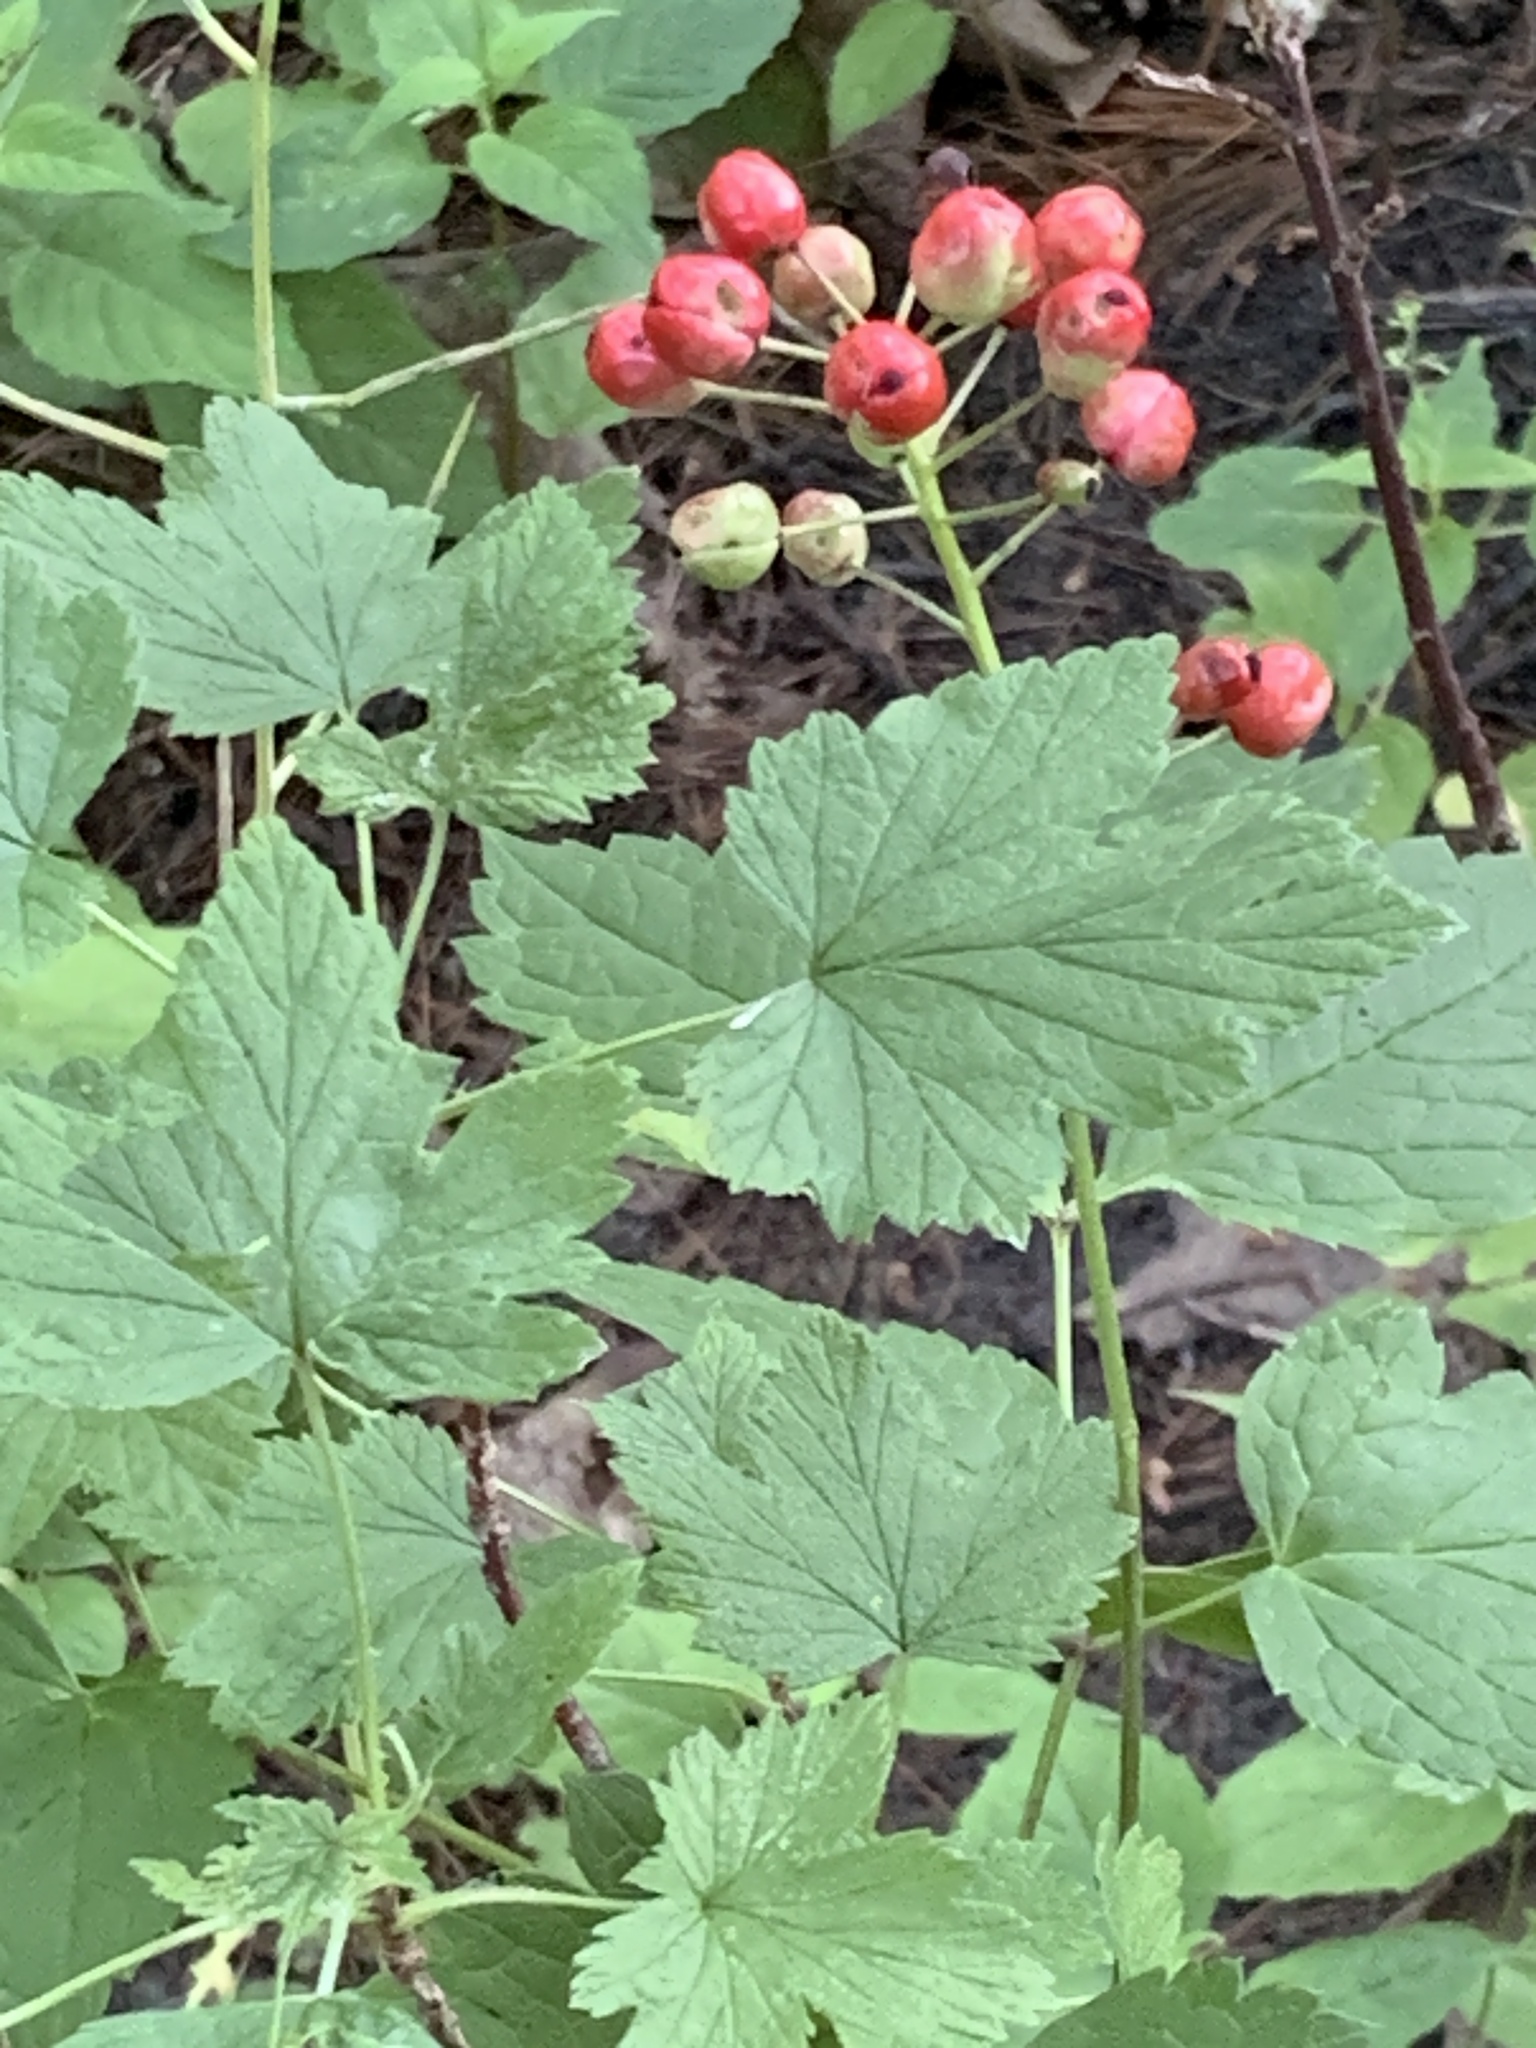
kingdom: Plantae
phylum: Tracheophyta
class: Magnoliopsida
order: Ranunculales
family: Ranunculaceae
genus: Actaea
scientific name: Actaea rubra
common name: Red baneberry
